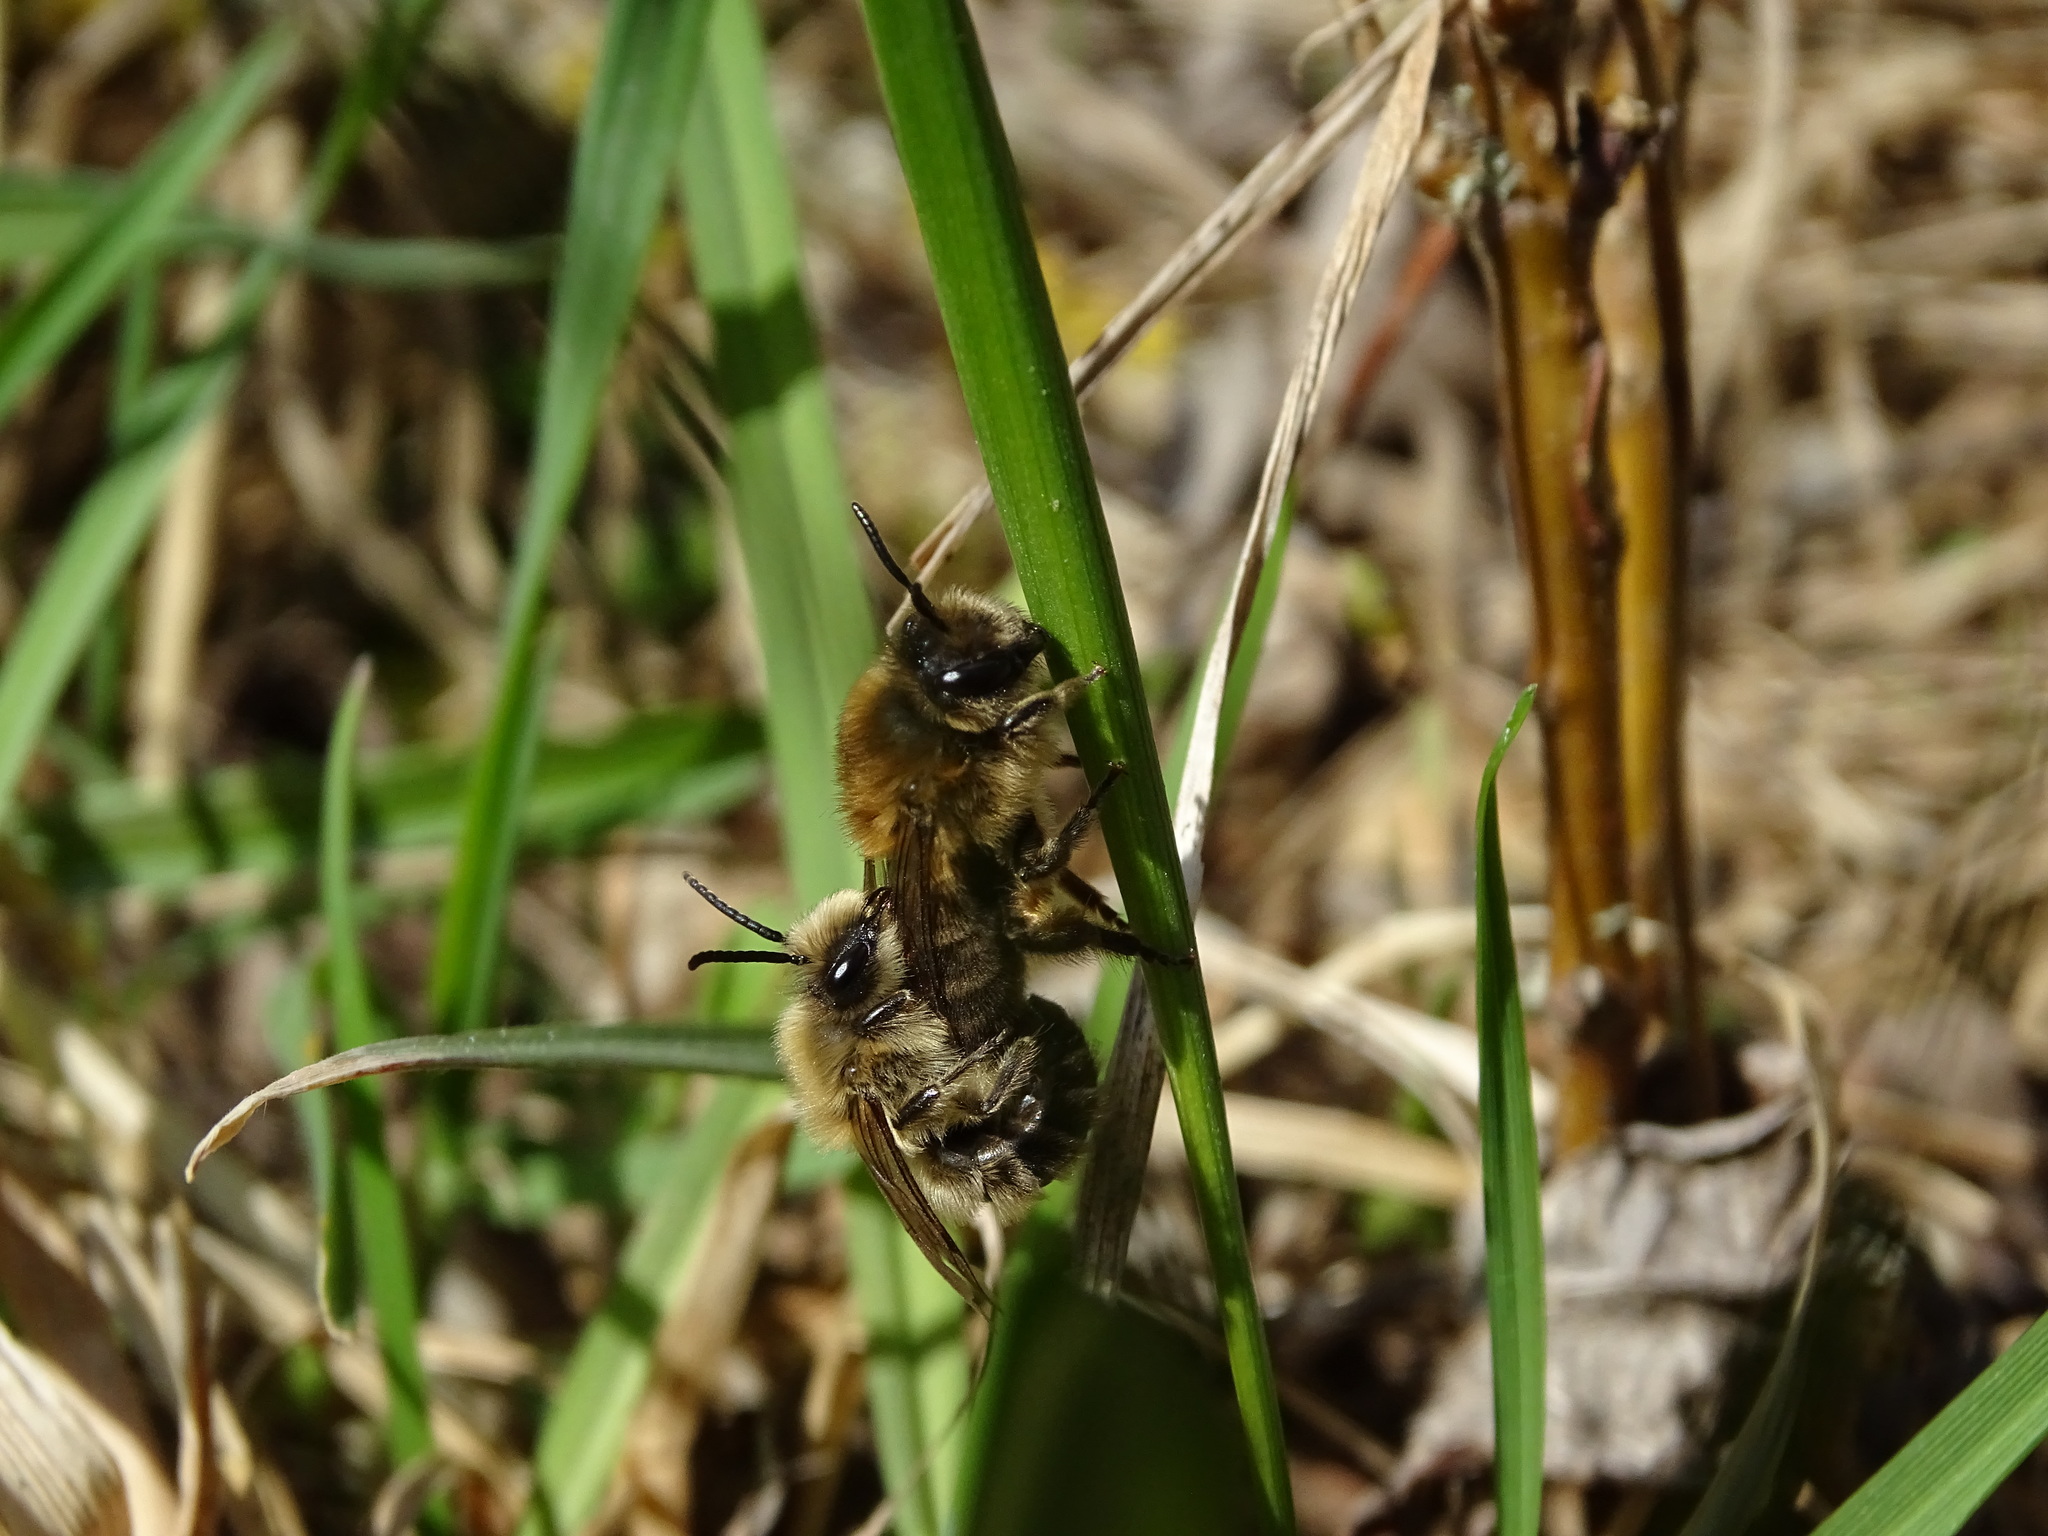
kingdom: Animalia
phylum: Arthropoda
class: Insecta
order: Hymenoptera
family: Colletidae
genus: Colletes
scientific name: Colletes cunicularius
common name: Early colletes
